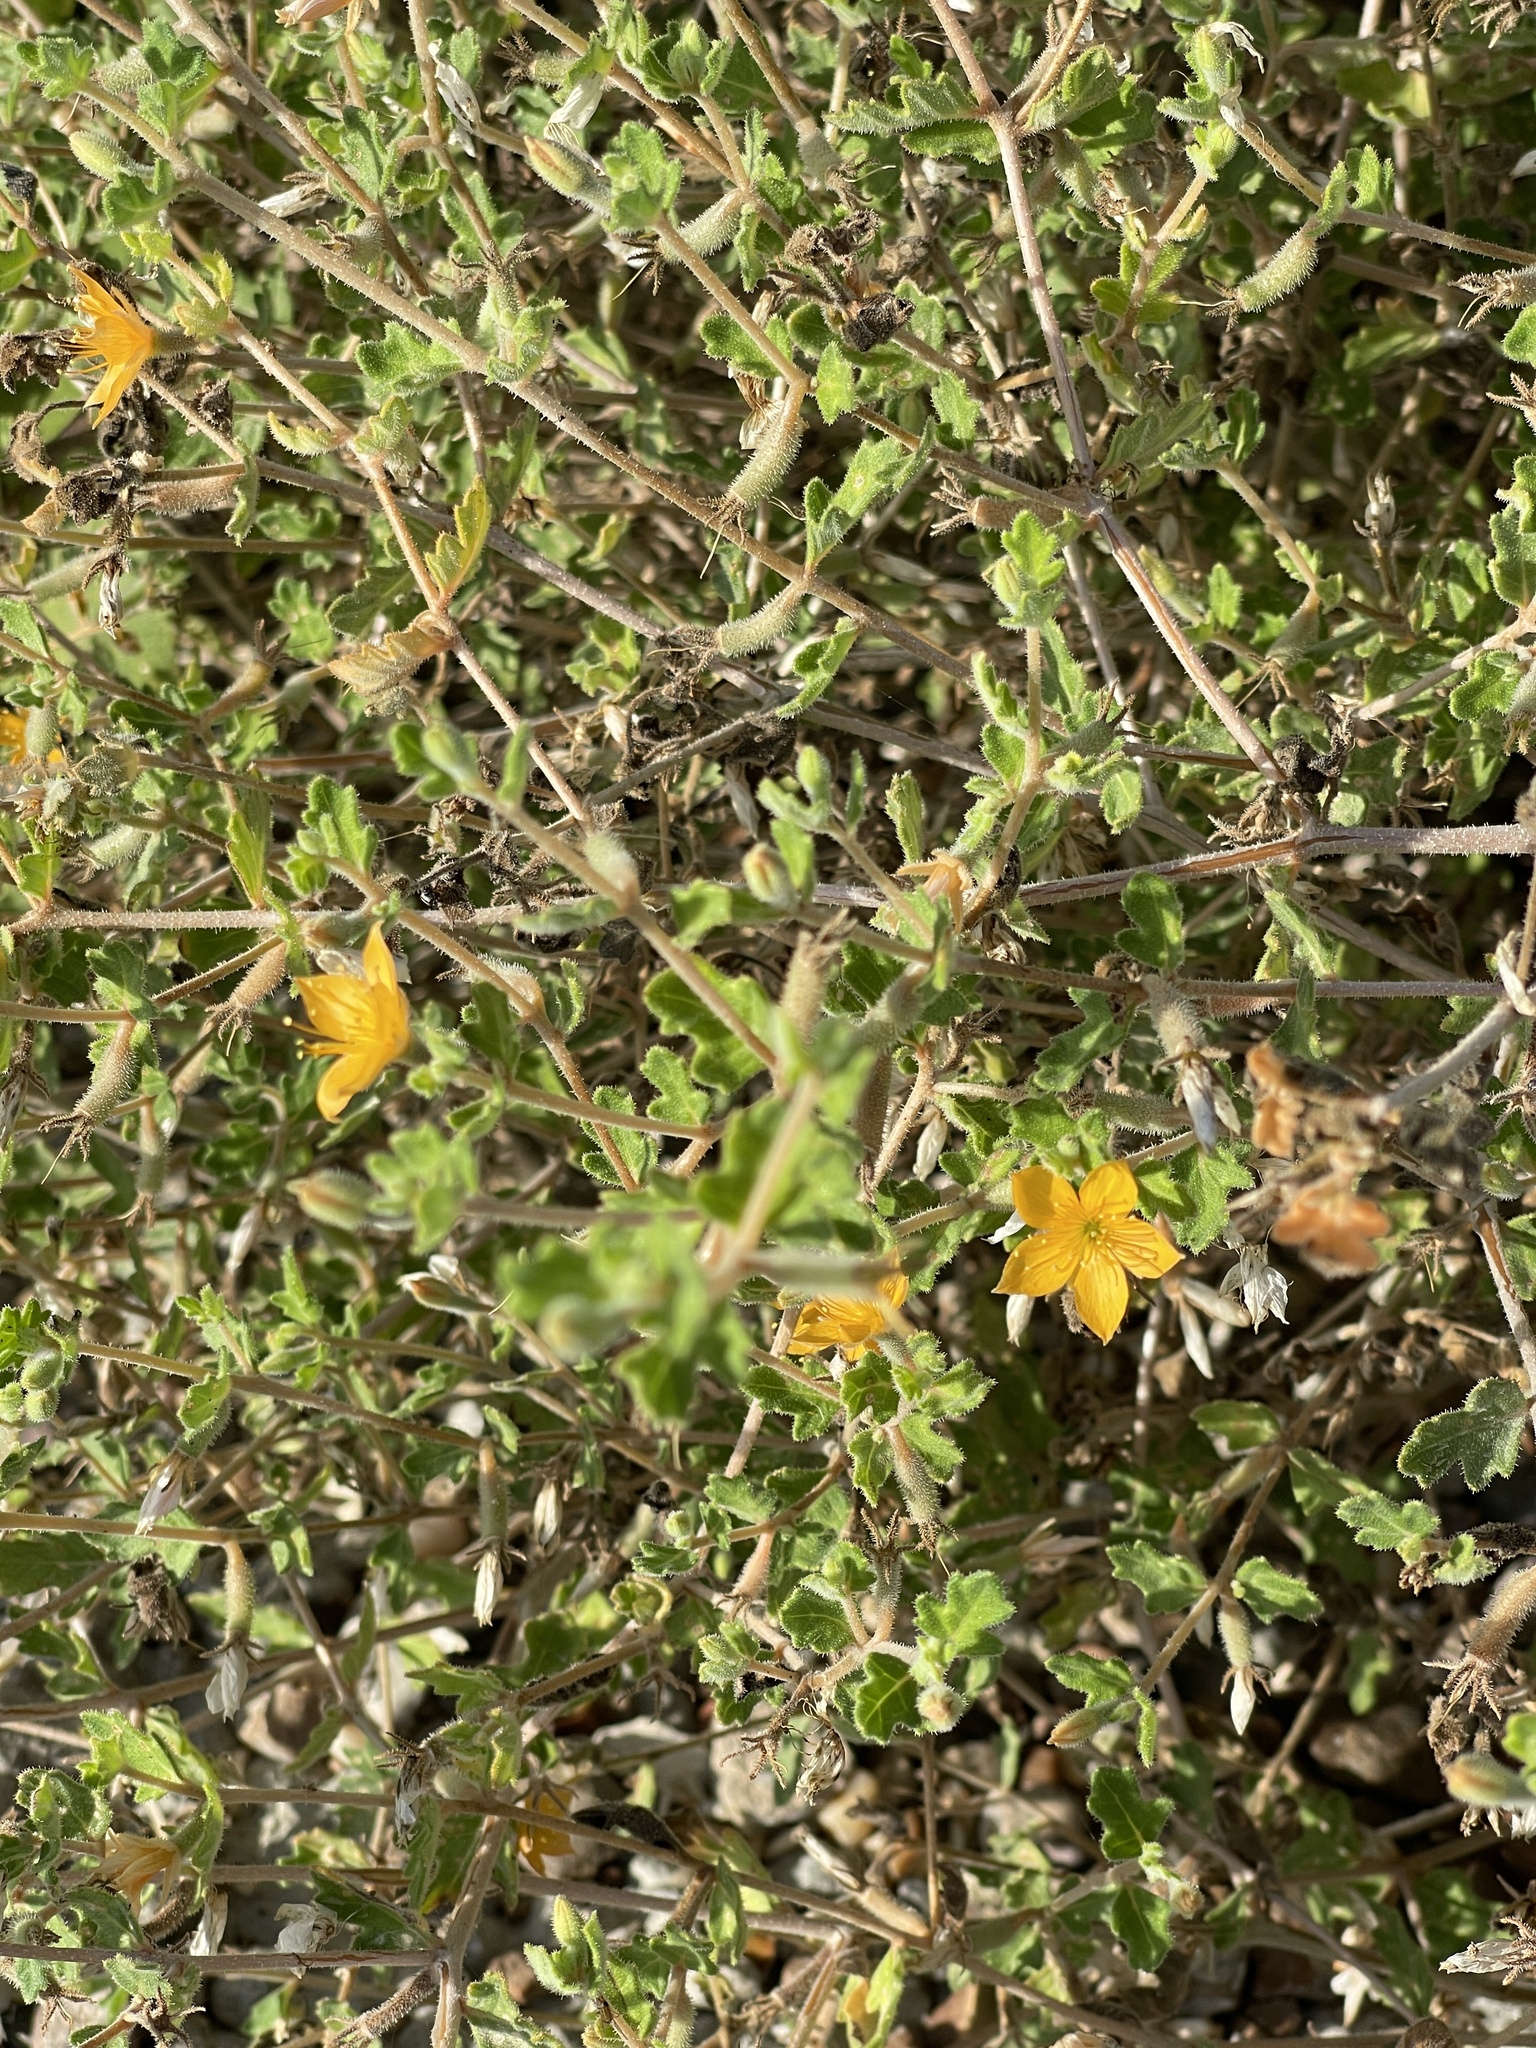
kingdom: Plantae
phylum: Tracheophyta
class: Magnoliopsida
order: Cornales
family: Loasaceae
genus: Mentzelia
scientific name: Mentzelia oligosperma
